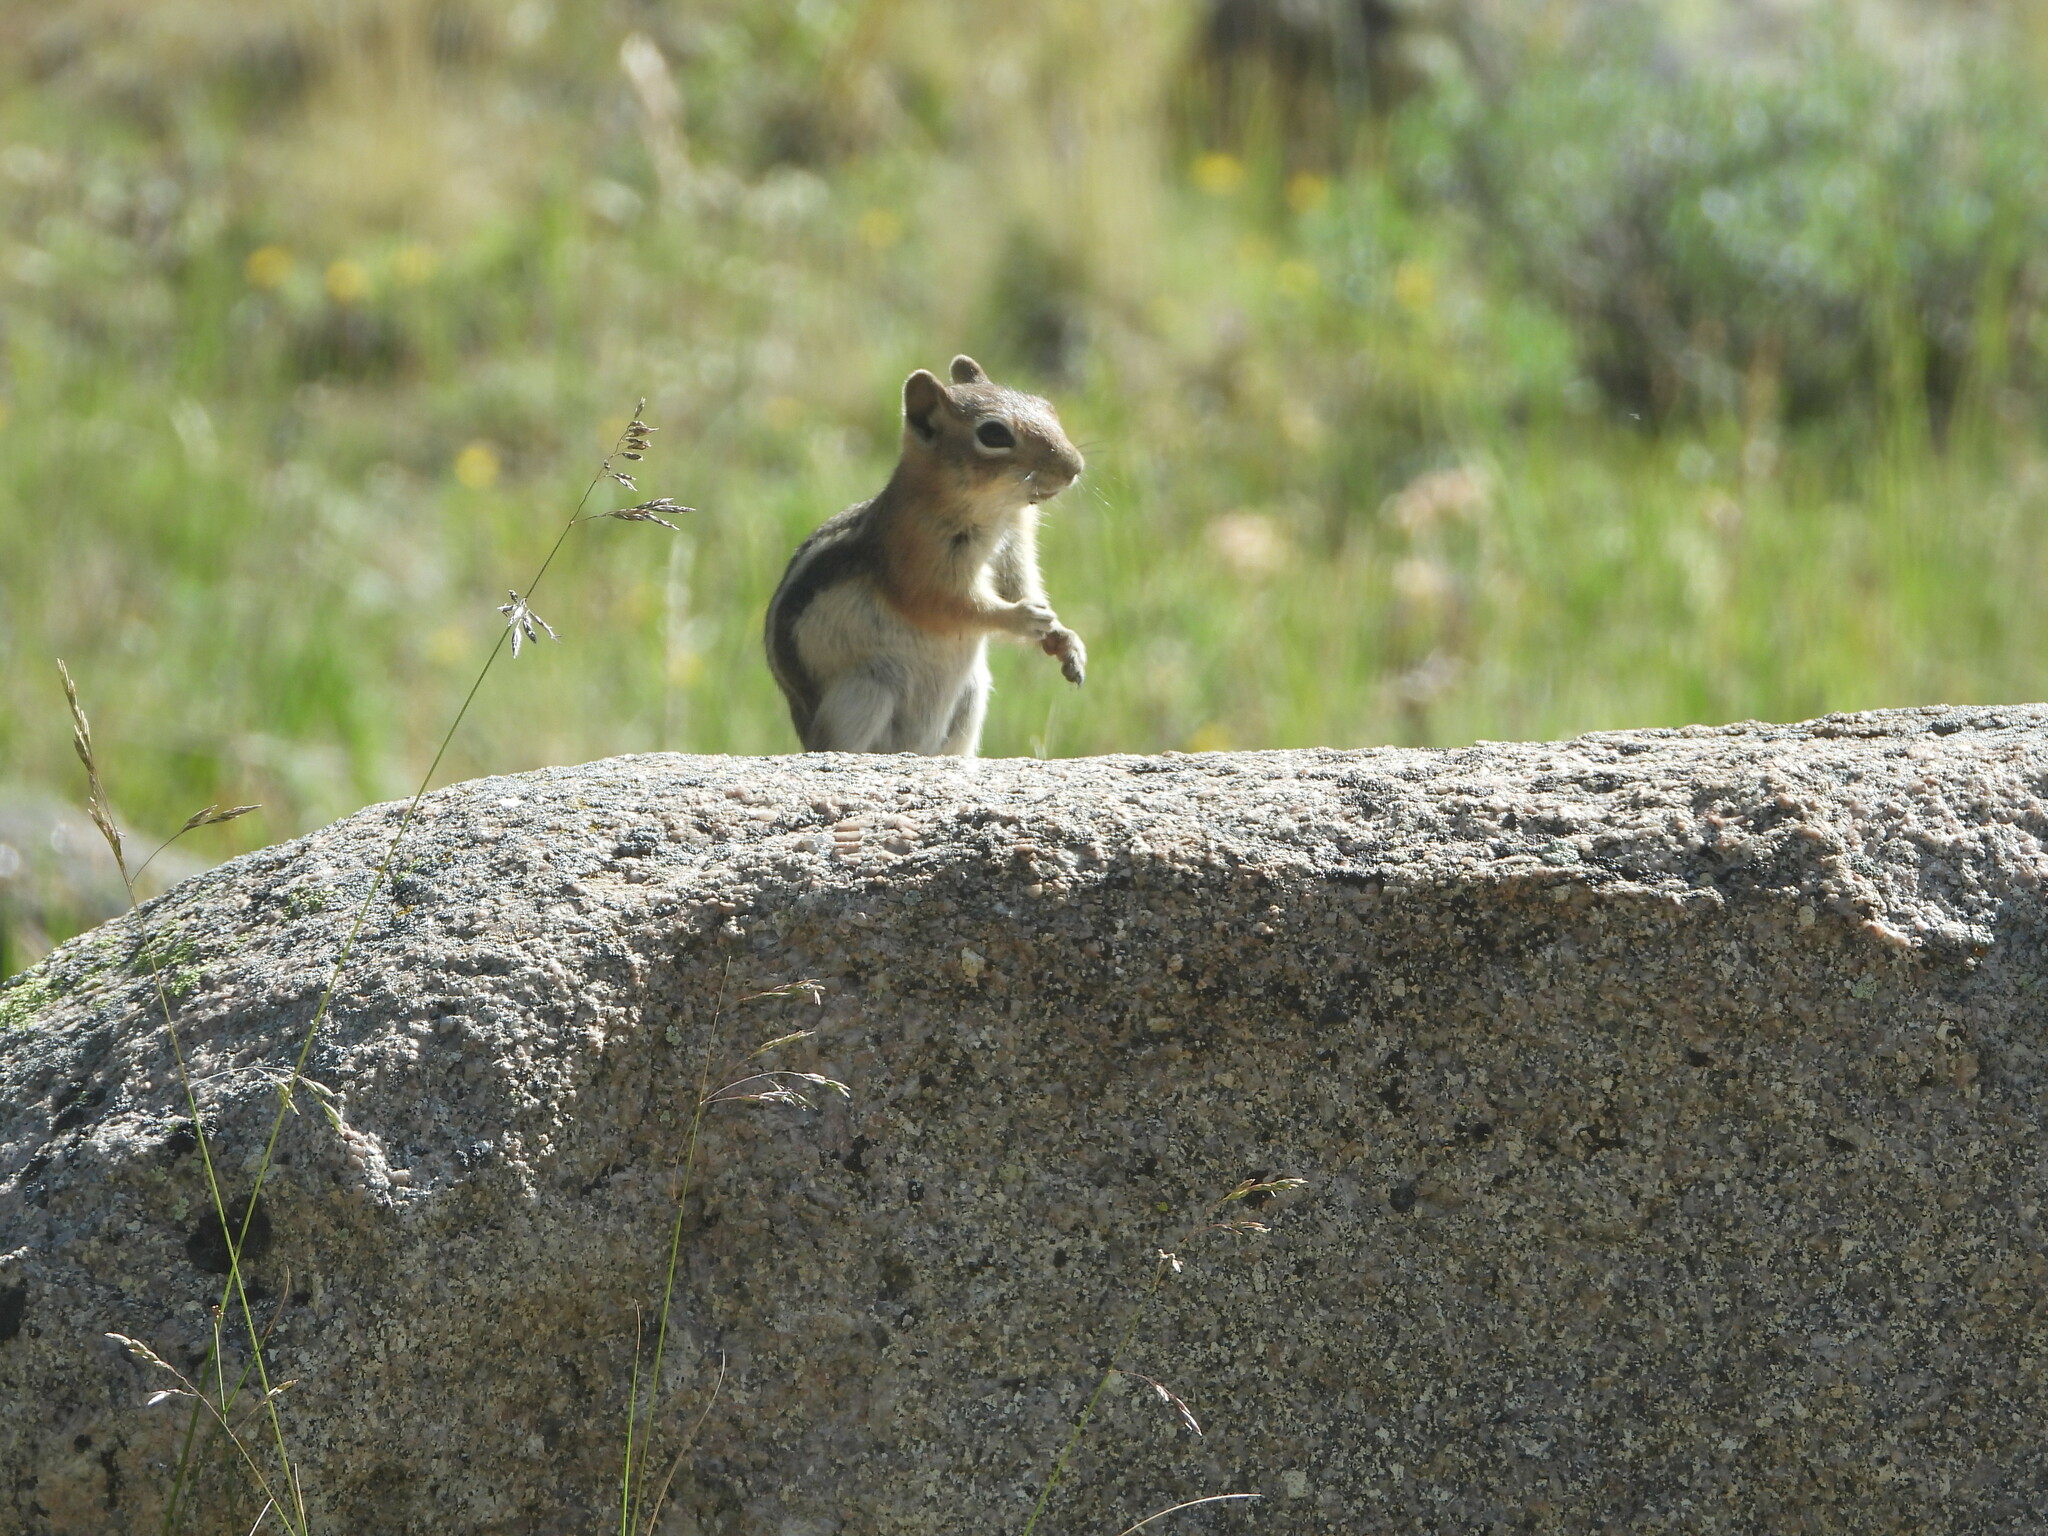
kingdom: Animalia
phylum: Chordata
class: Mammalia
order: Rodentia
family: Sciuridae
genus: Callospermophilus
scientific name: Callospermophilus lateralis
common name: Golden-mantled ground squirrel
